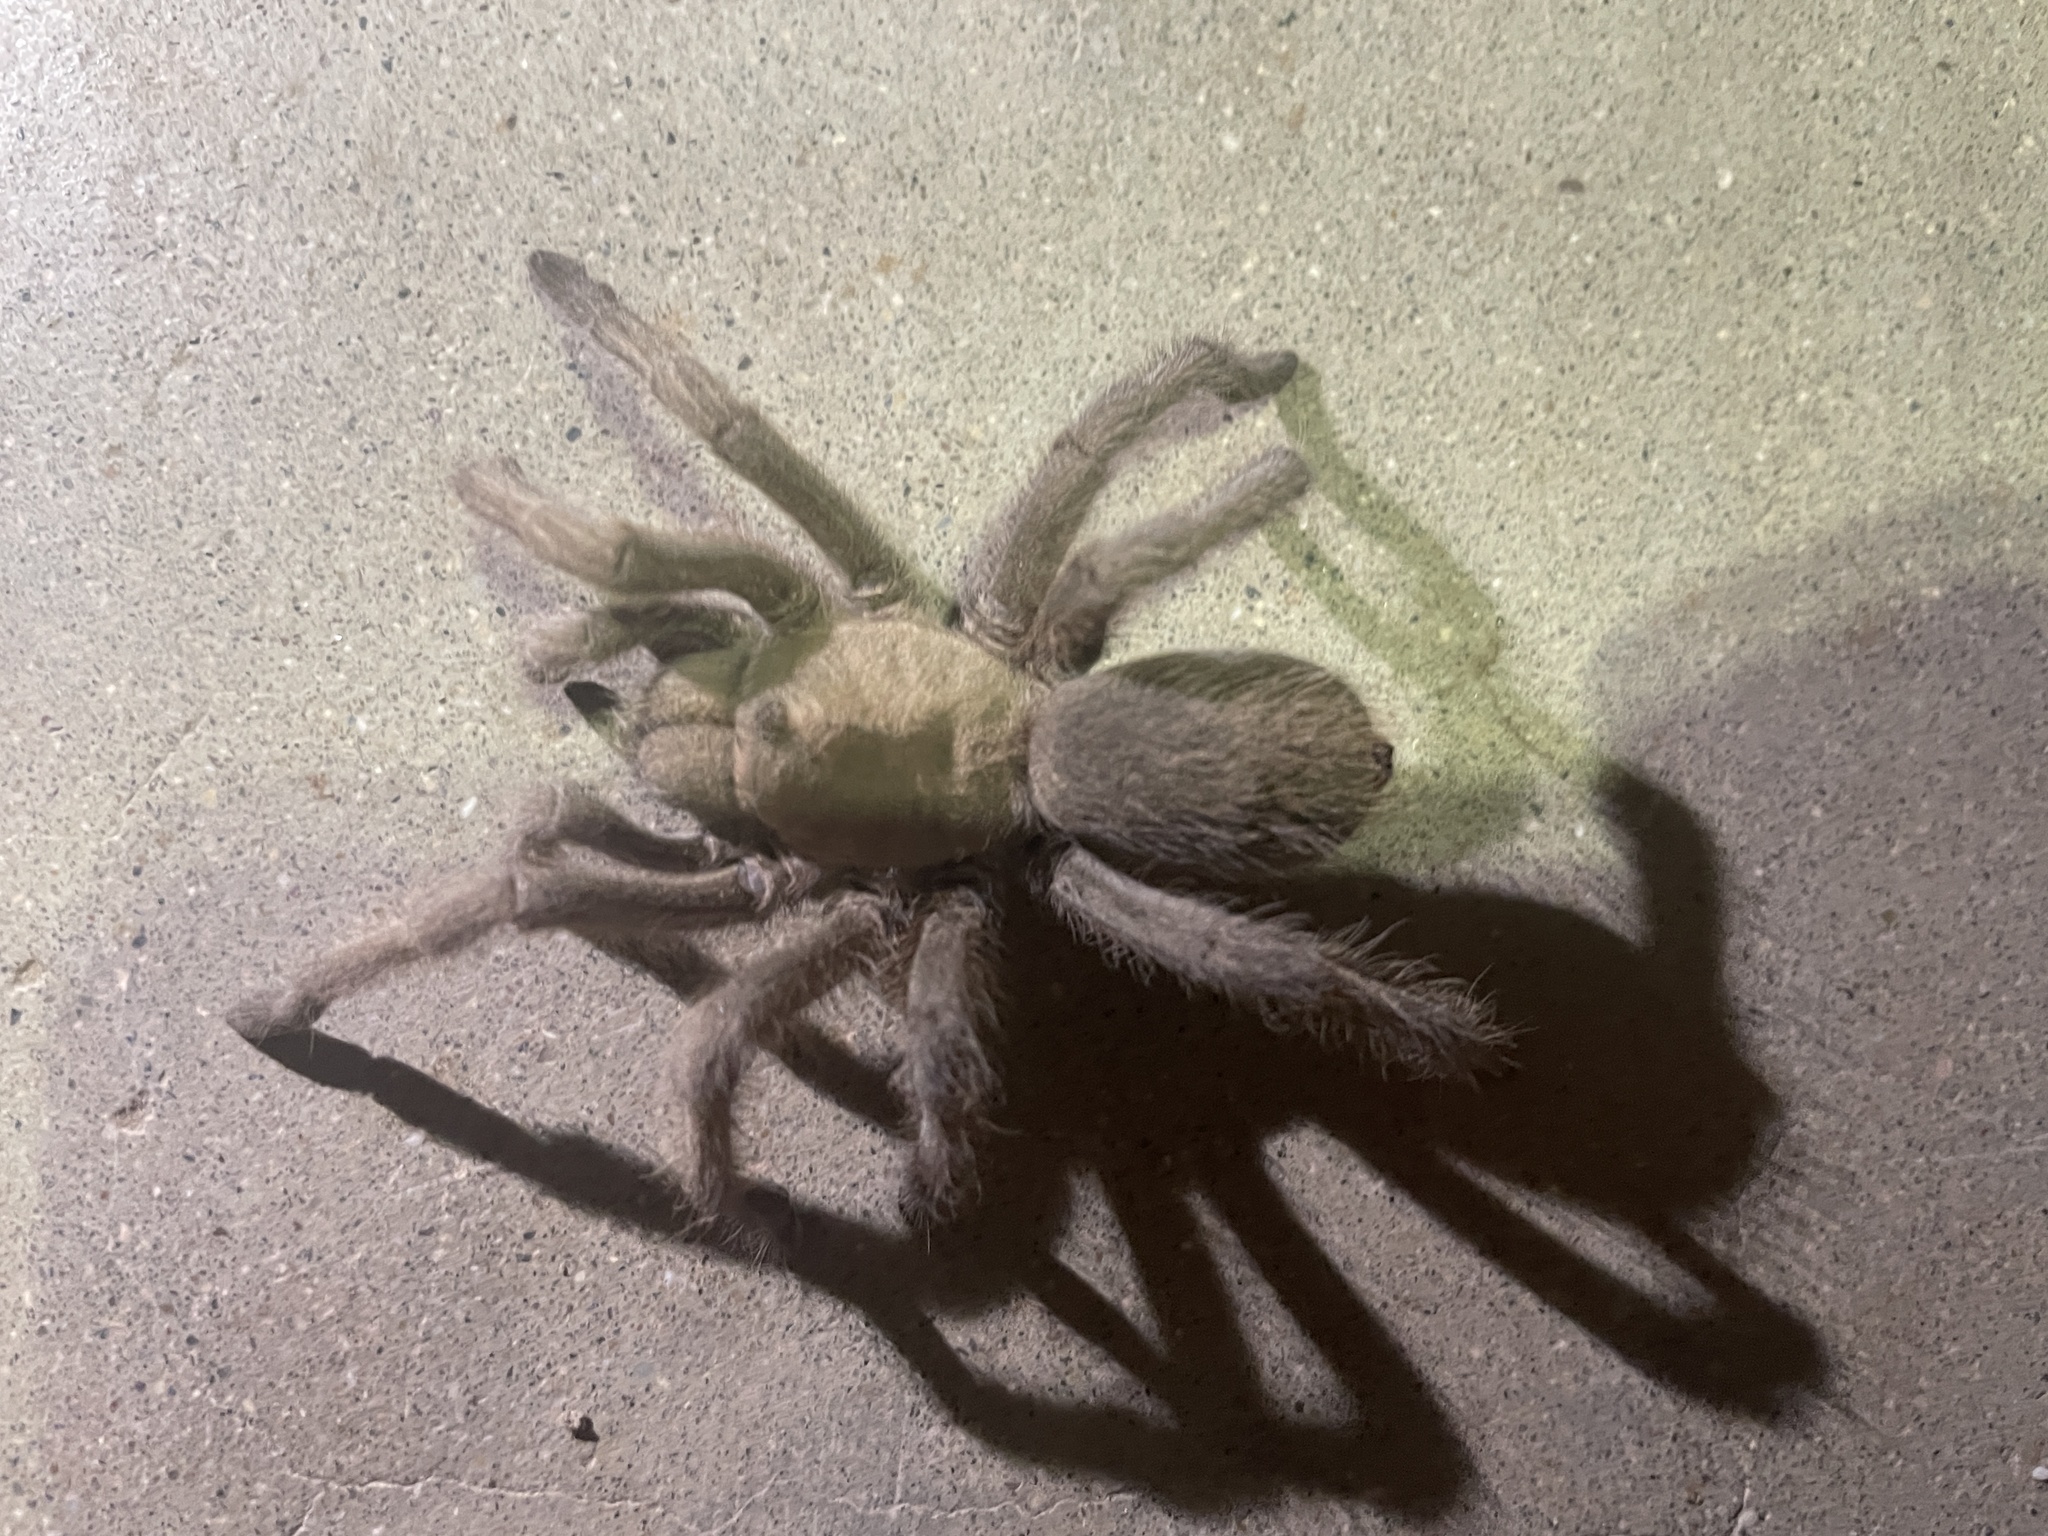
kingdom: Animalia
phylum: Arthropoda
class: Arachnida
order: Araneae
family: Theraphosidae
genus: Aphonopelma
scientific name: Aphonopelma gabeli
